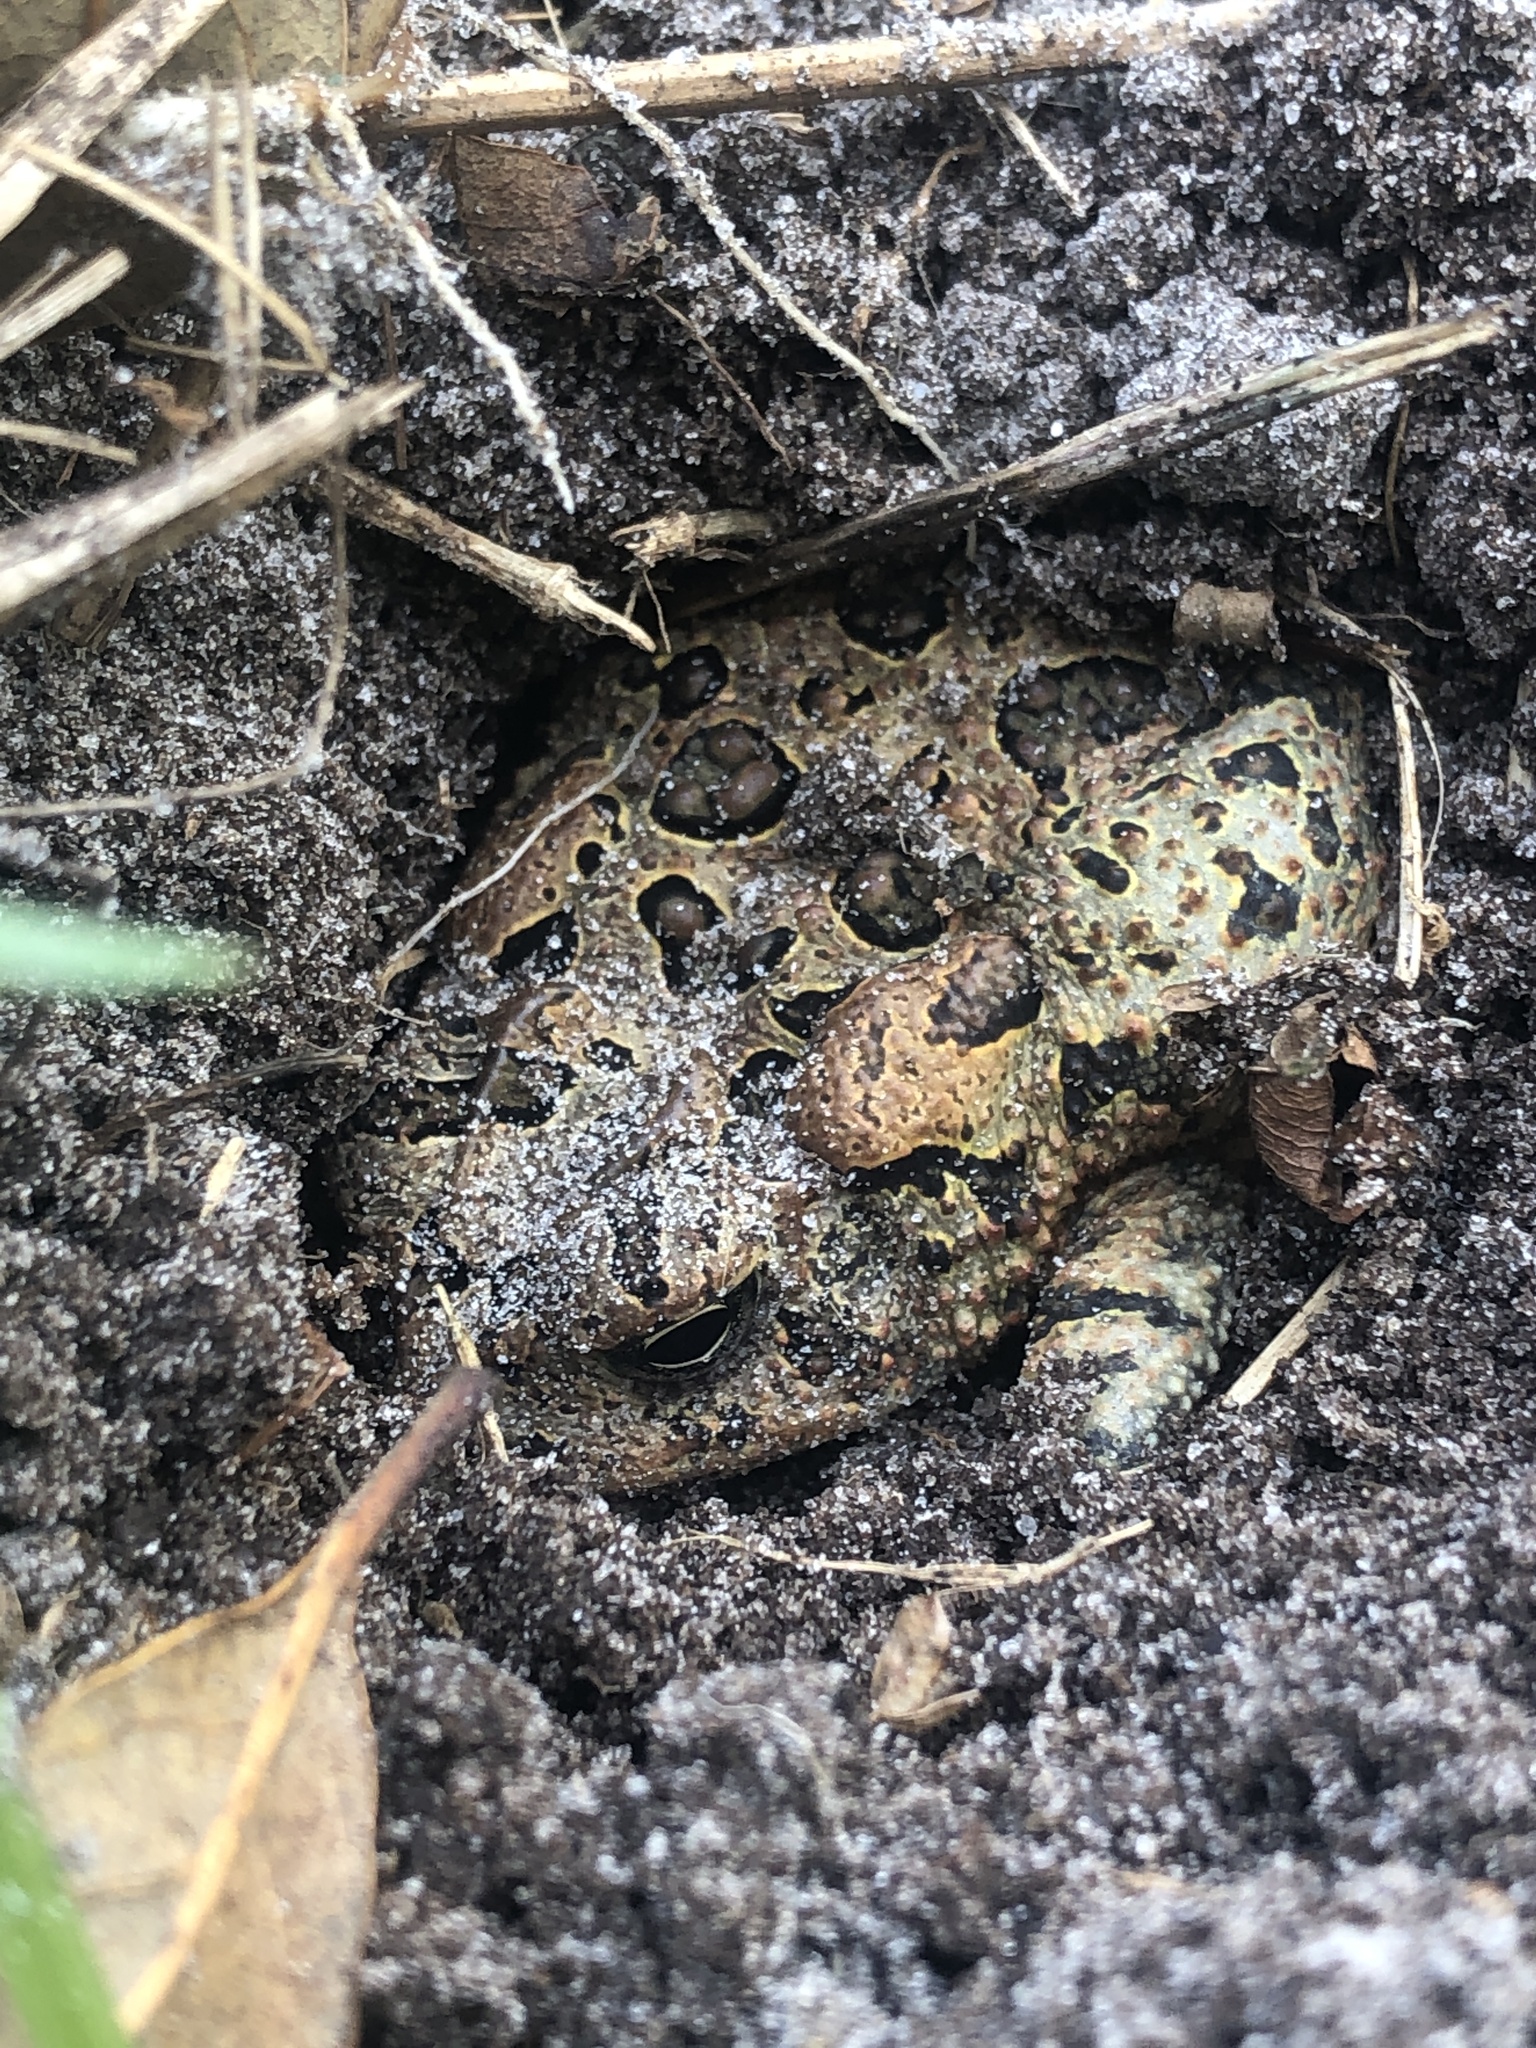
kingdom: Animalia
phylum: Chordata
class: Amphibia
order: Anura
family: Bufonidae
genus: Anaxyrus
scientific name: Anaxyrus terrestris
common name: Southern toad
